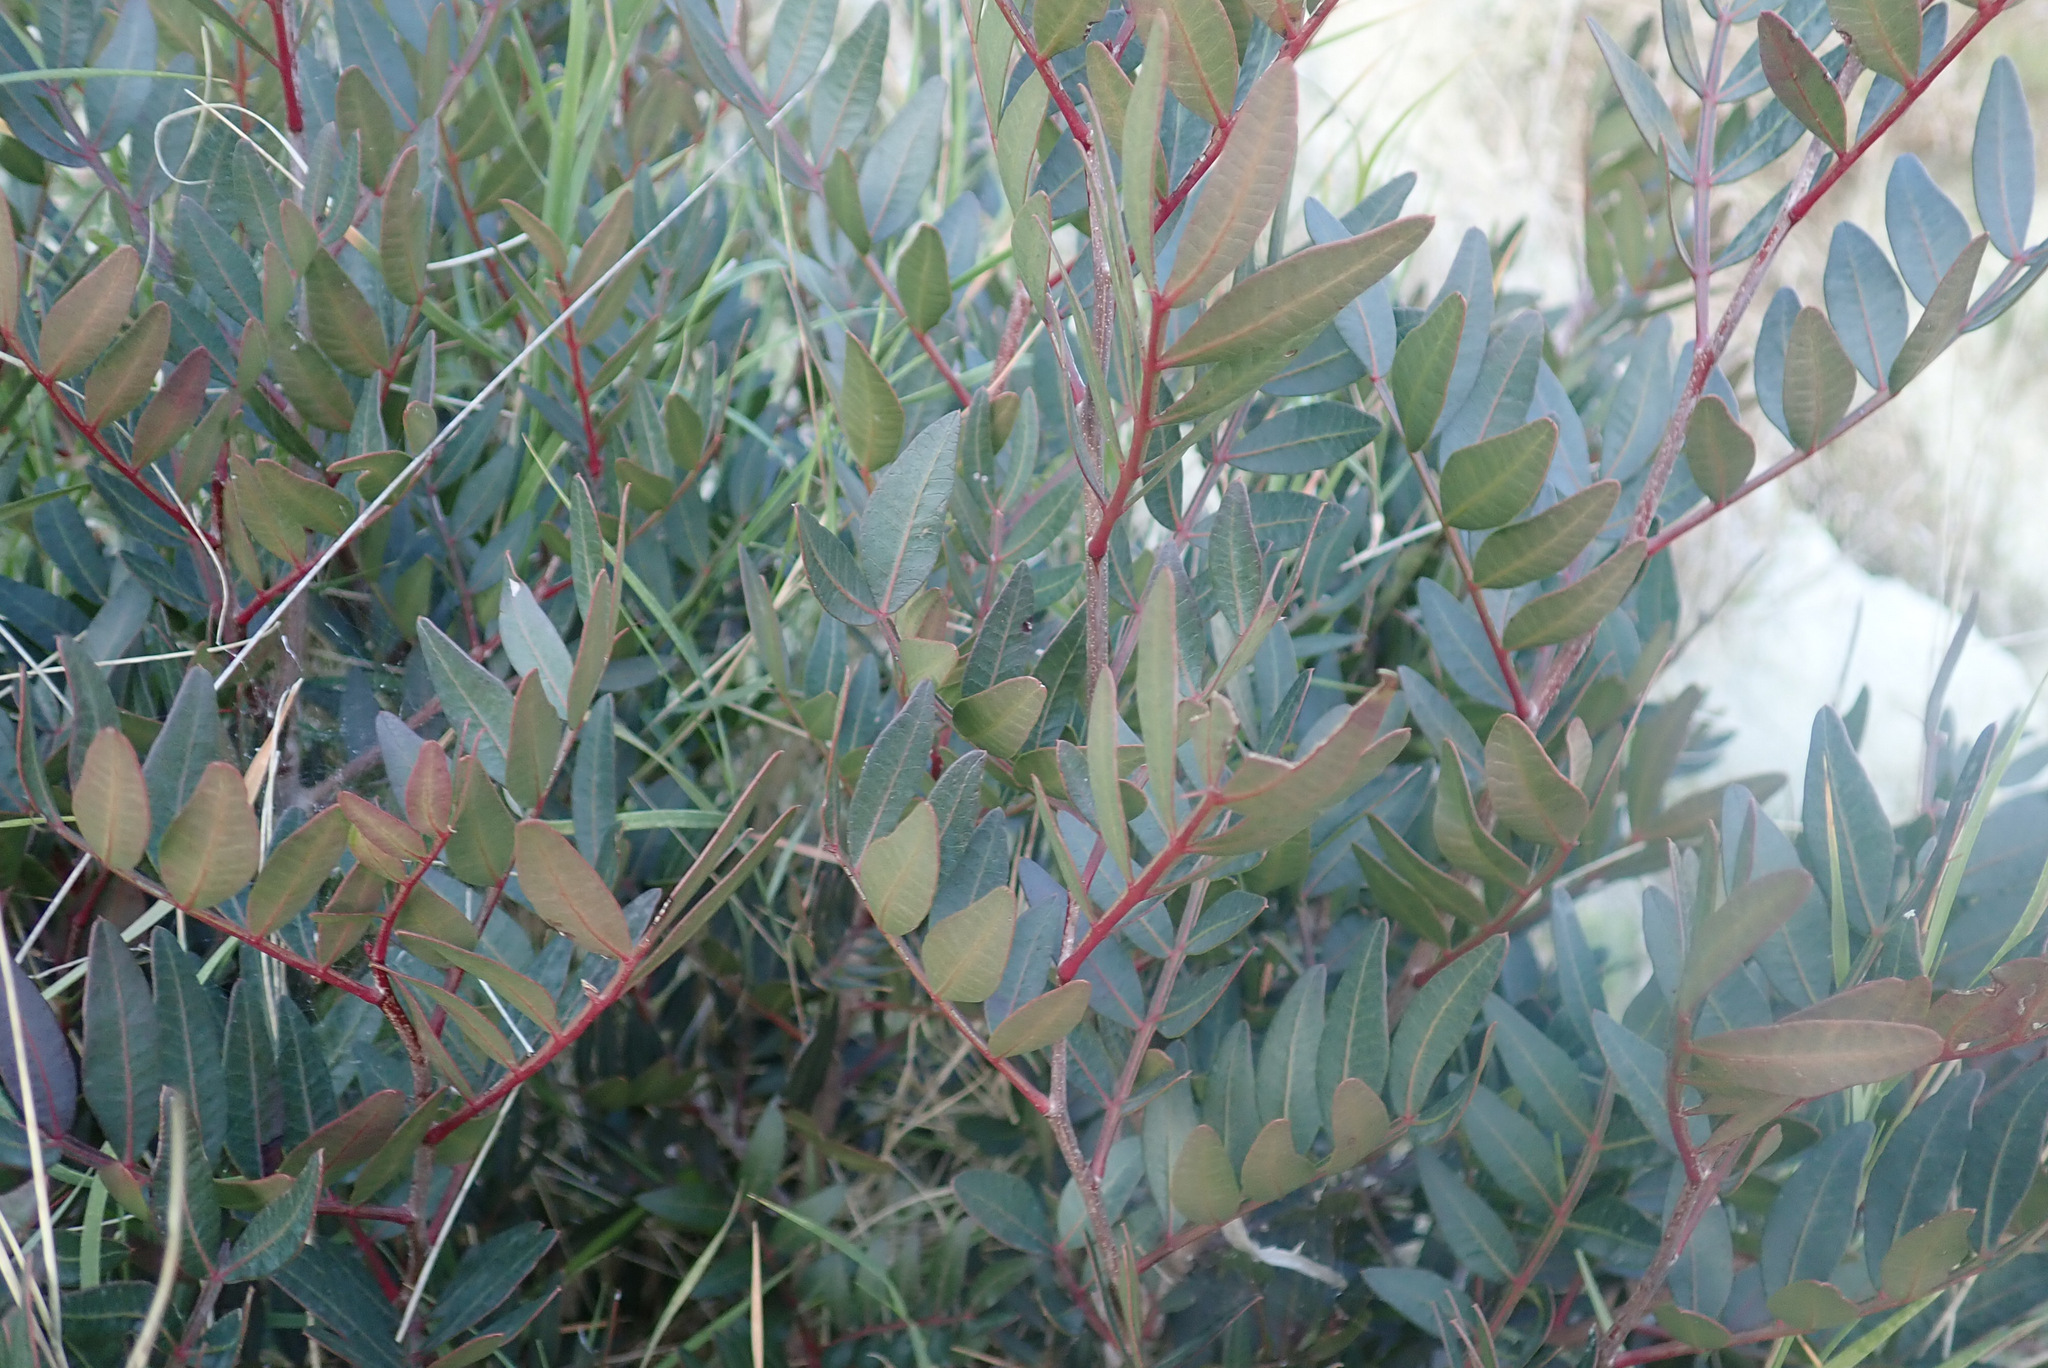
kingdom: Plantae
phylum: Tracheophyta
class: Magnoliopsida
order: Sapindales
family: Anacardiaceae
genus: Pistacia
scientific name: Pistacia lentiscus
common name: Lentisk
